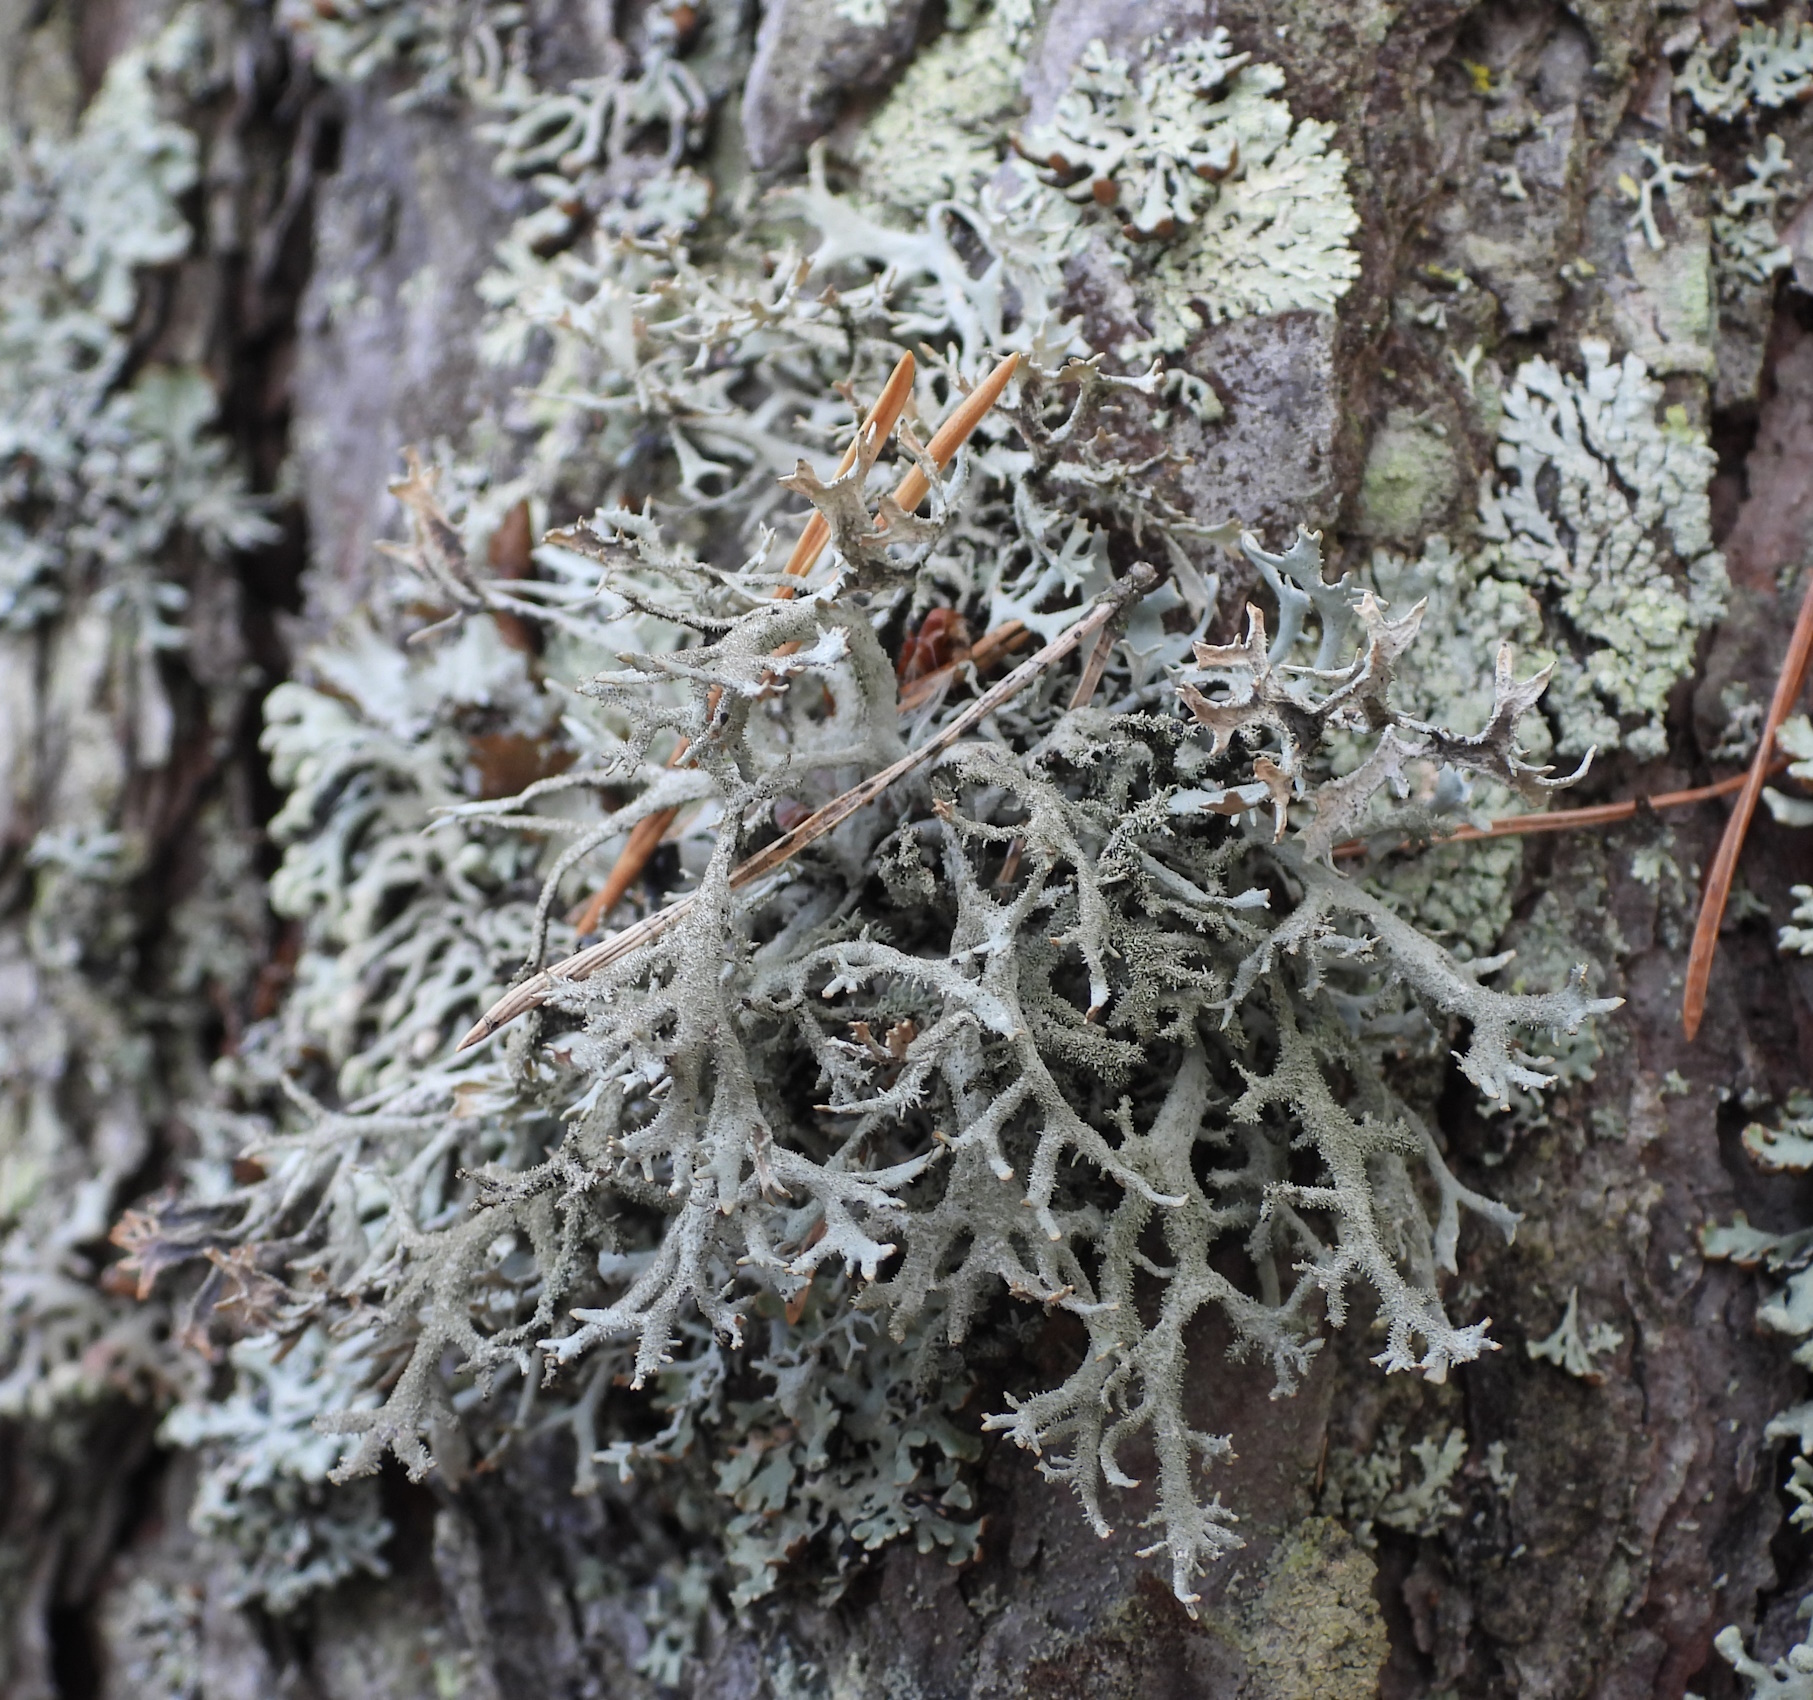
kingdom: Fungi
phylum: Ascomycota
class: Lecanoromycetes
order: Lecanorales
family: Parmeliaceae
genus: Pseudevernia
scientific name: Pseudevernia furfuracea
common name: Tree moss
